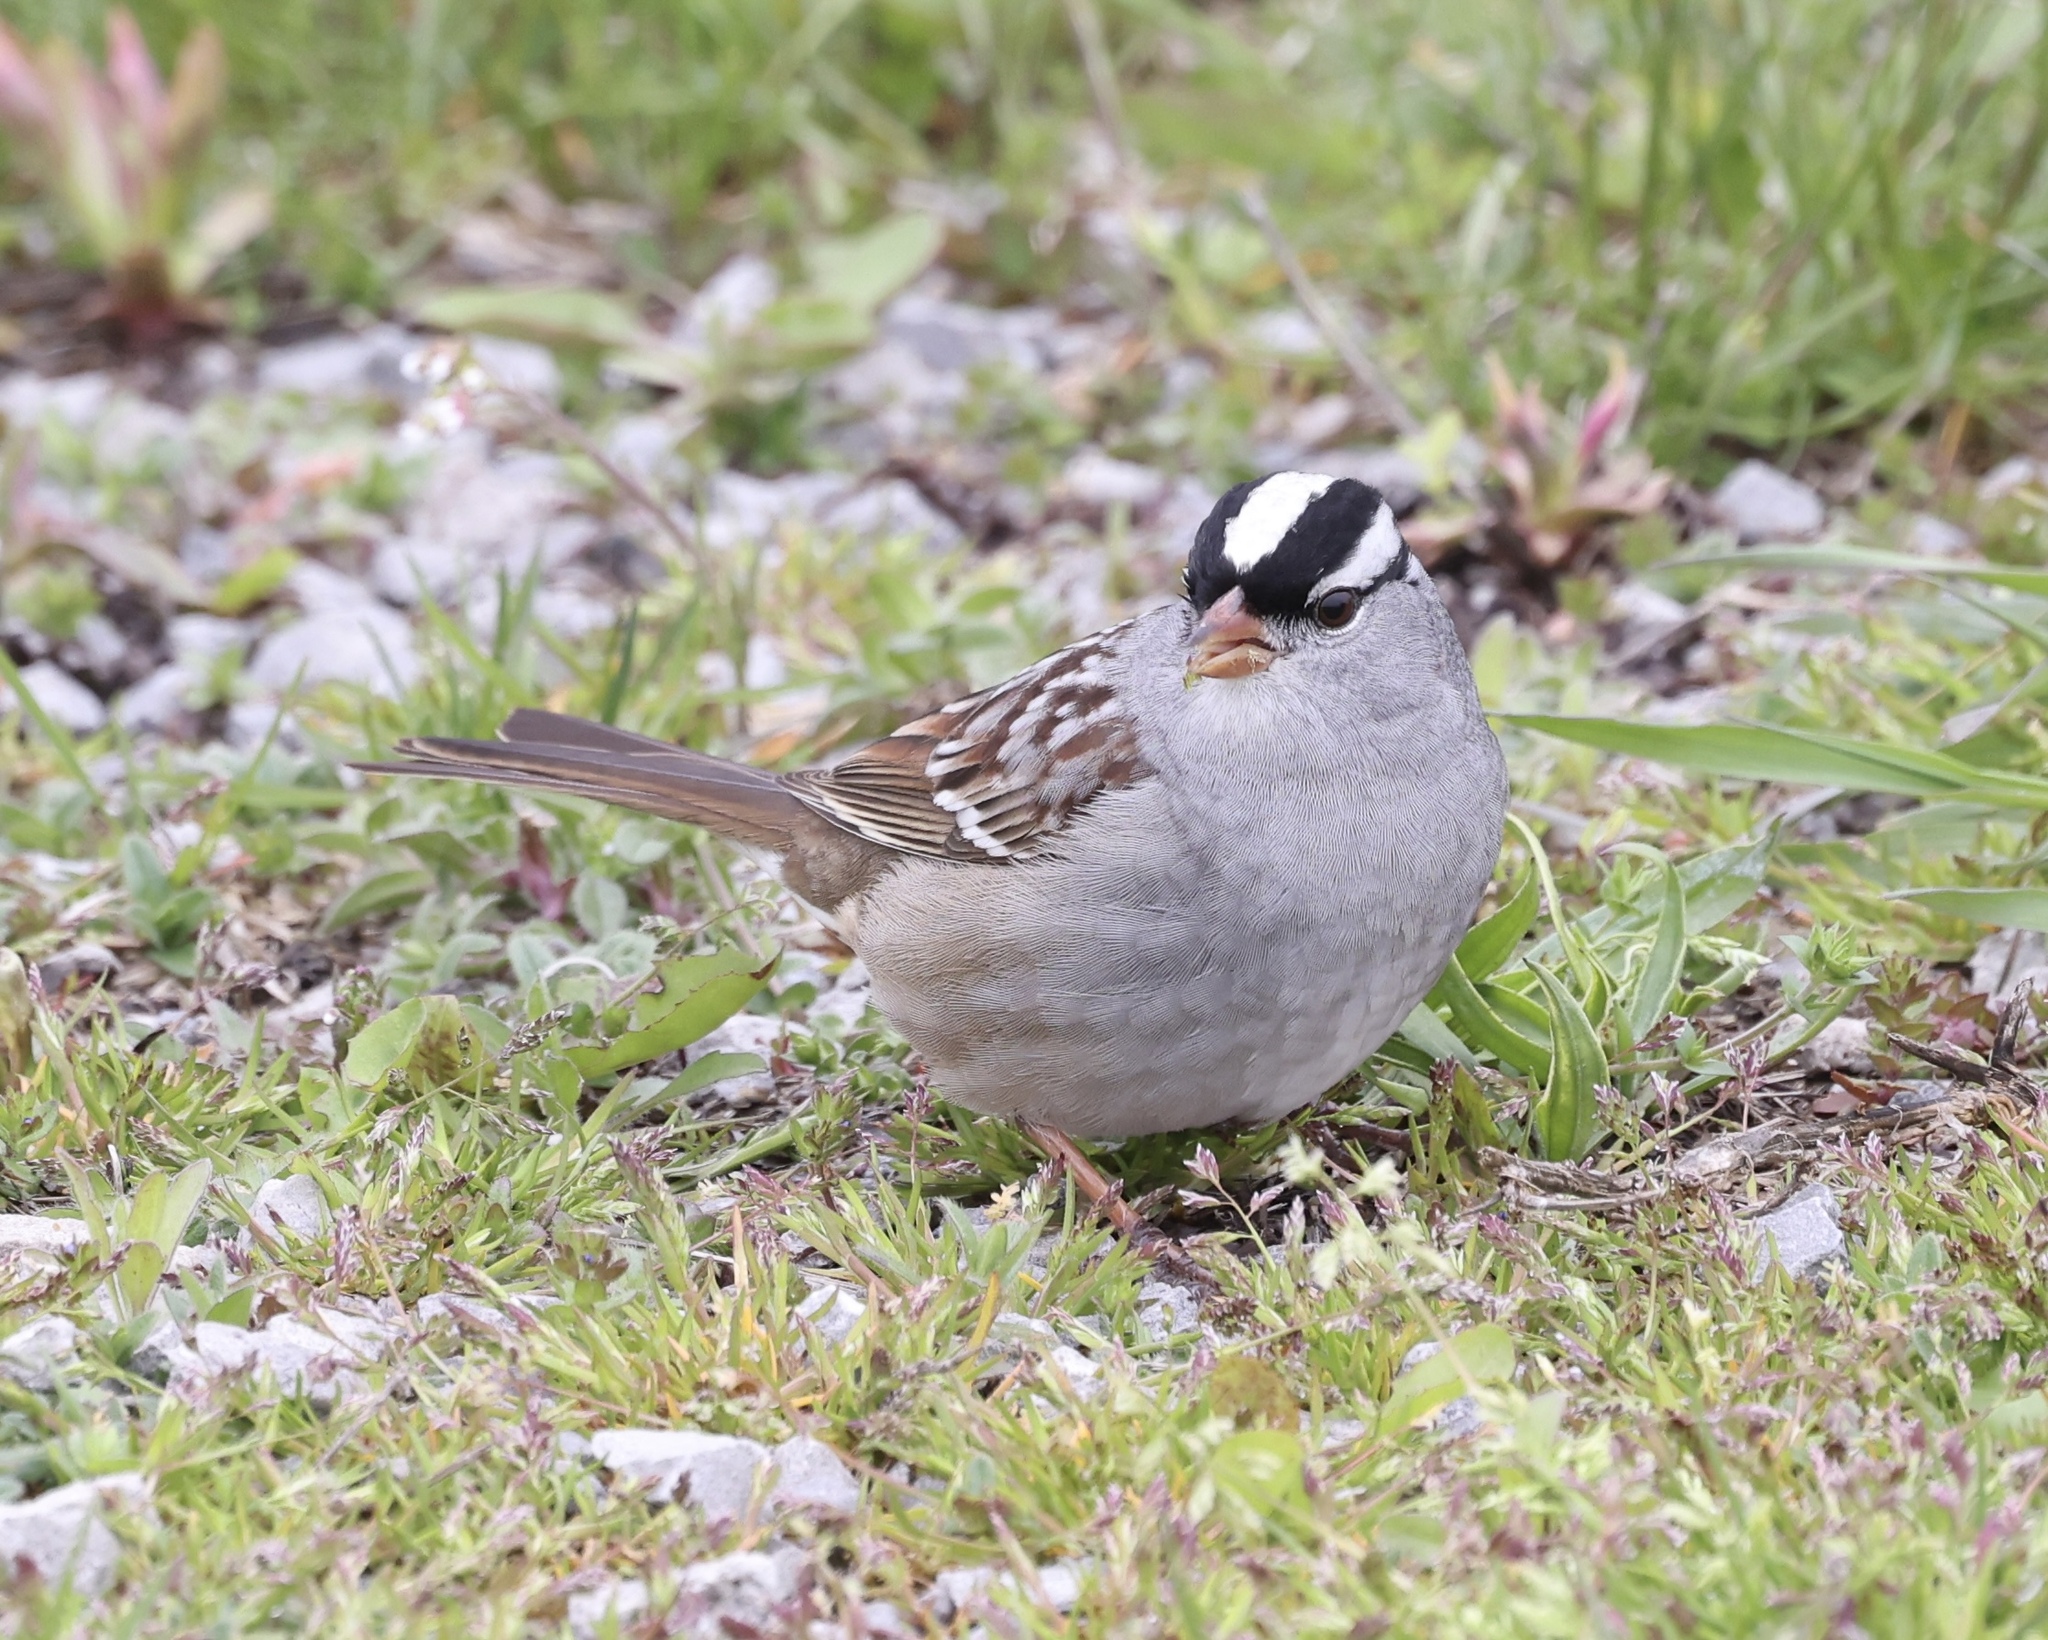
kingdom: Animalia
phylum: Chordata
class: Aves
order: Passeriformes
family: Passerellidae
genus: Zonotrichia
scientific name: Zonotrichia leucophrys
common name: White-crowned sparrow
